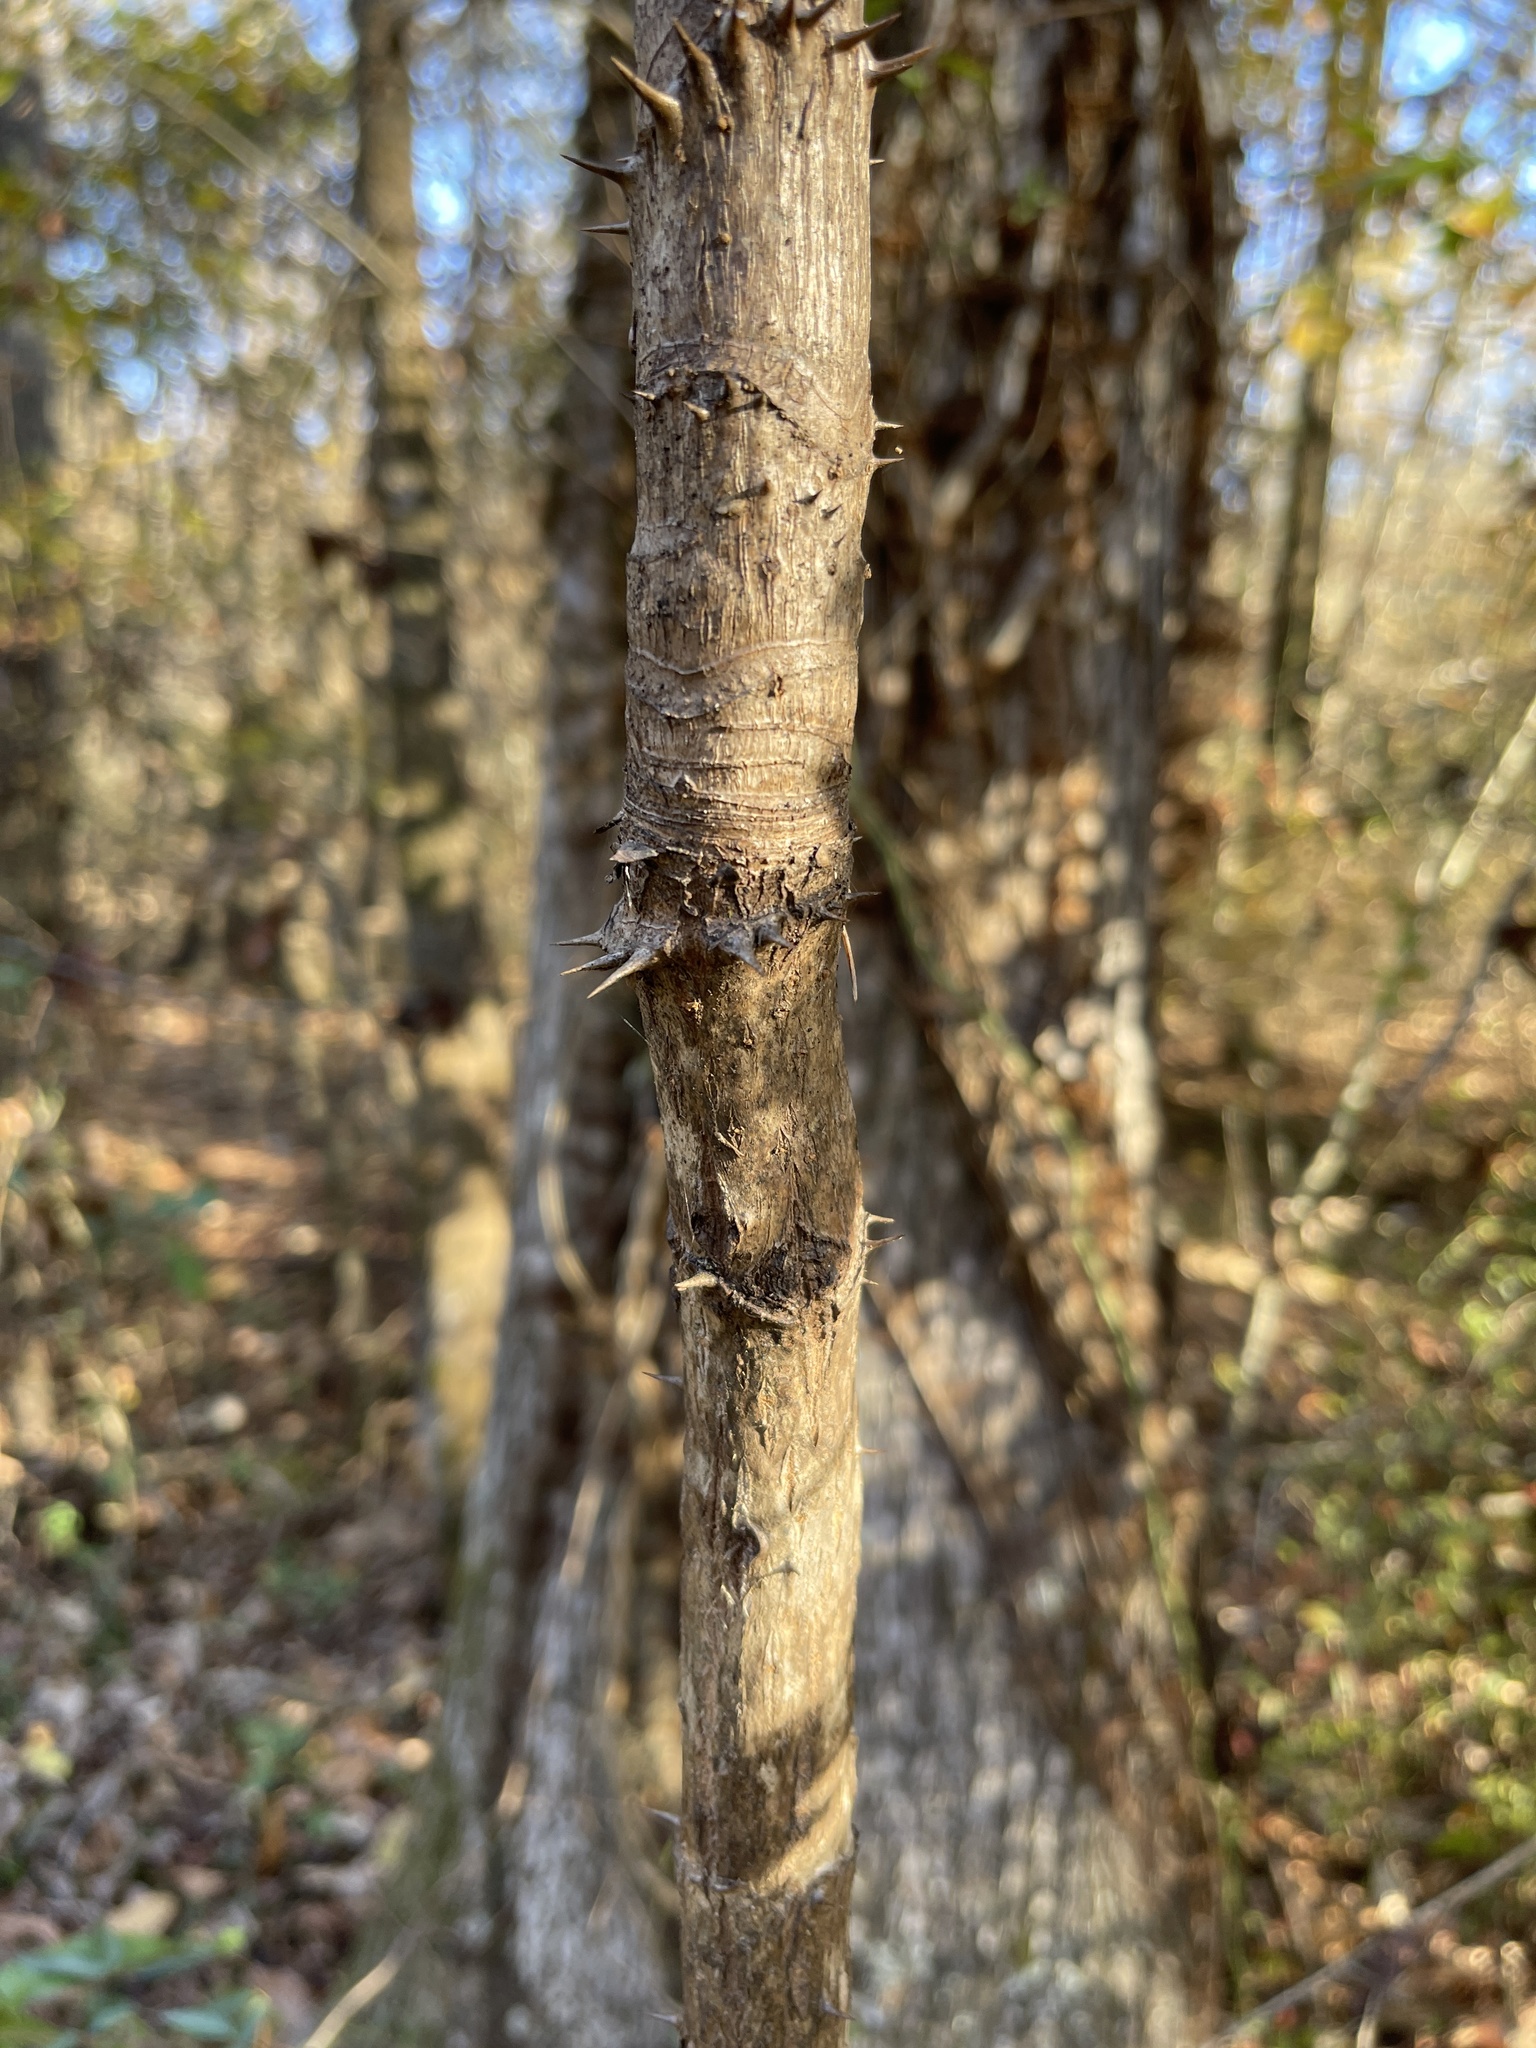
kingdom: Plantae
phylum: Tracheophyta
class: Magnoliopsida
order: Apiales
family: Araliaceae
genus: Aralia
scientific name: Aralia spinosa
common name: Hercules'-club
